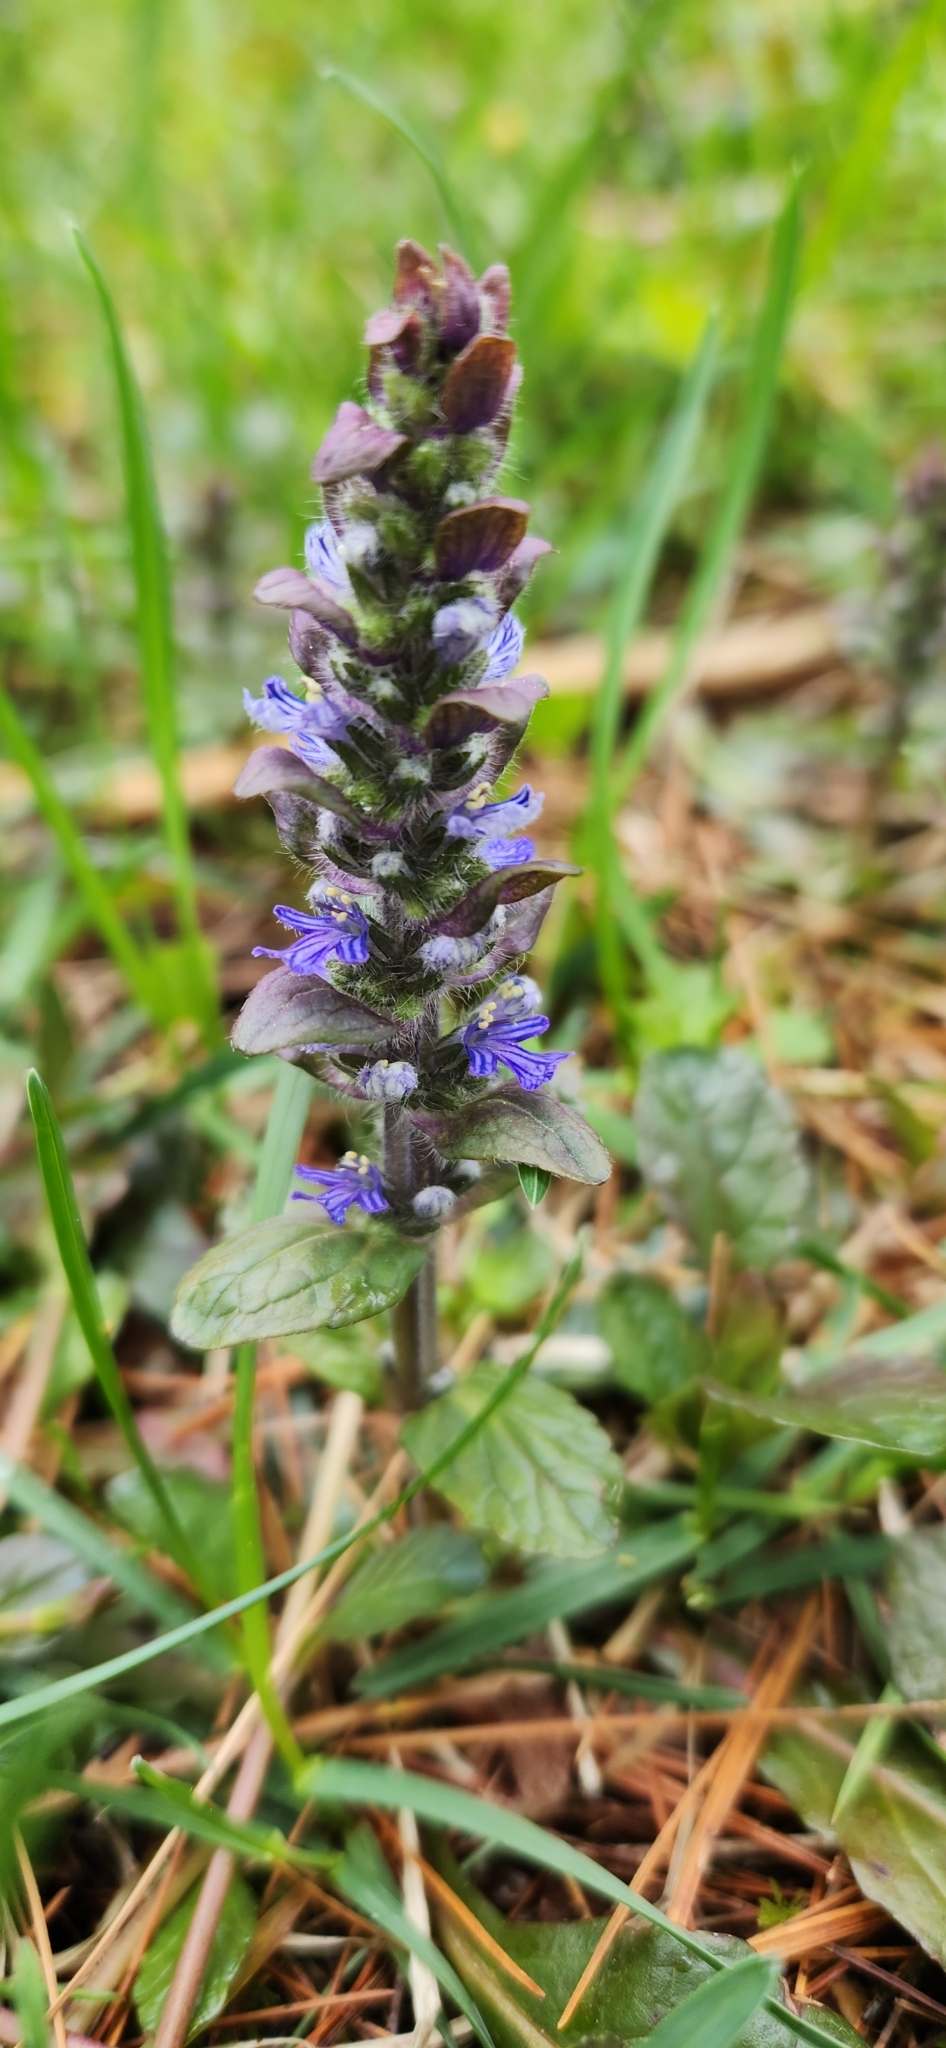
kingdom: Plantae
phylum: Tracheophyta
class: Magnoliopsida
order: Lamiales
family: Lamiaceae
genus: Ajuga
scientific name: Ajuga reptans
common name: Bugle
